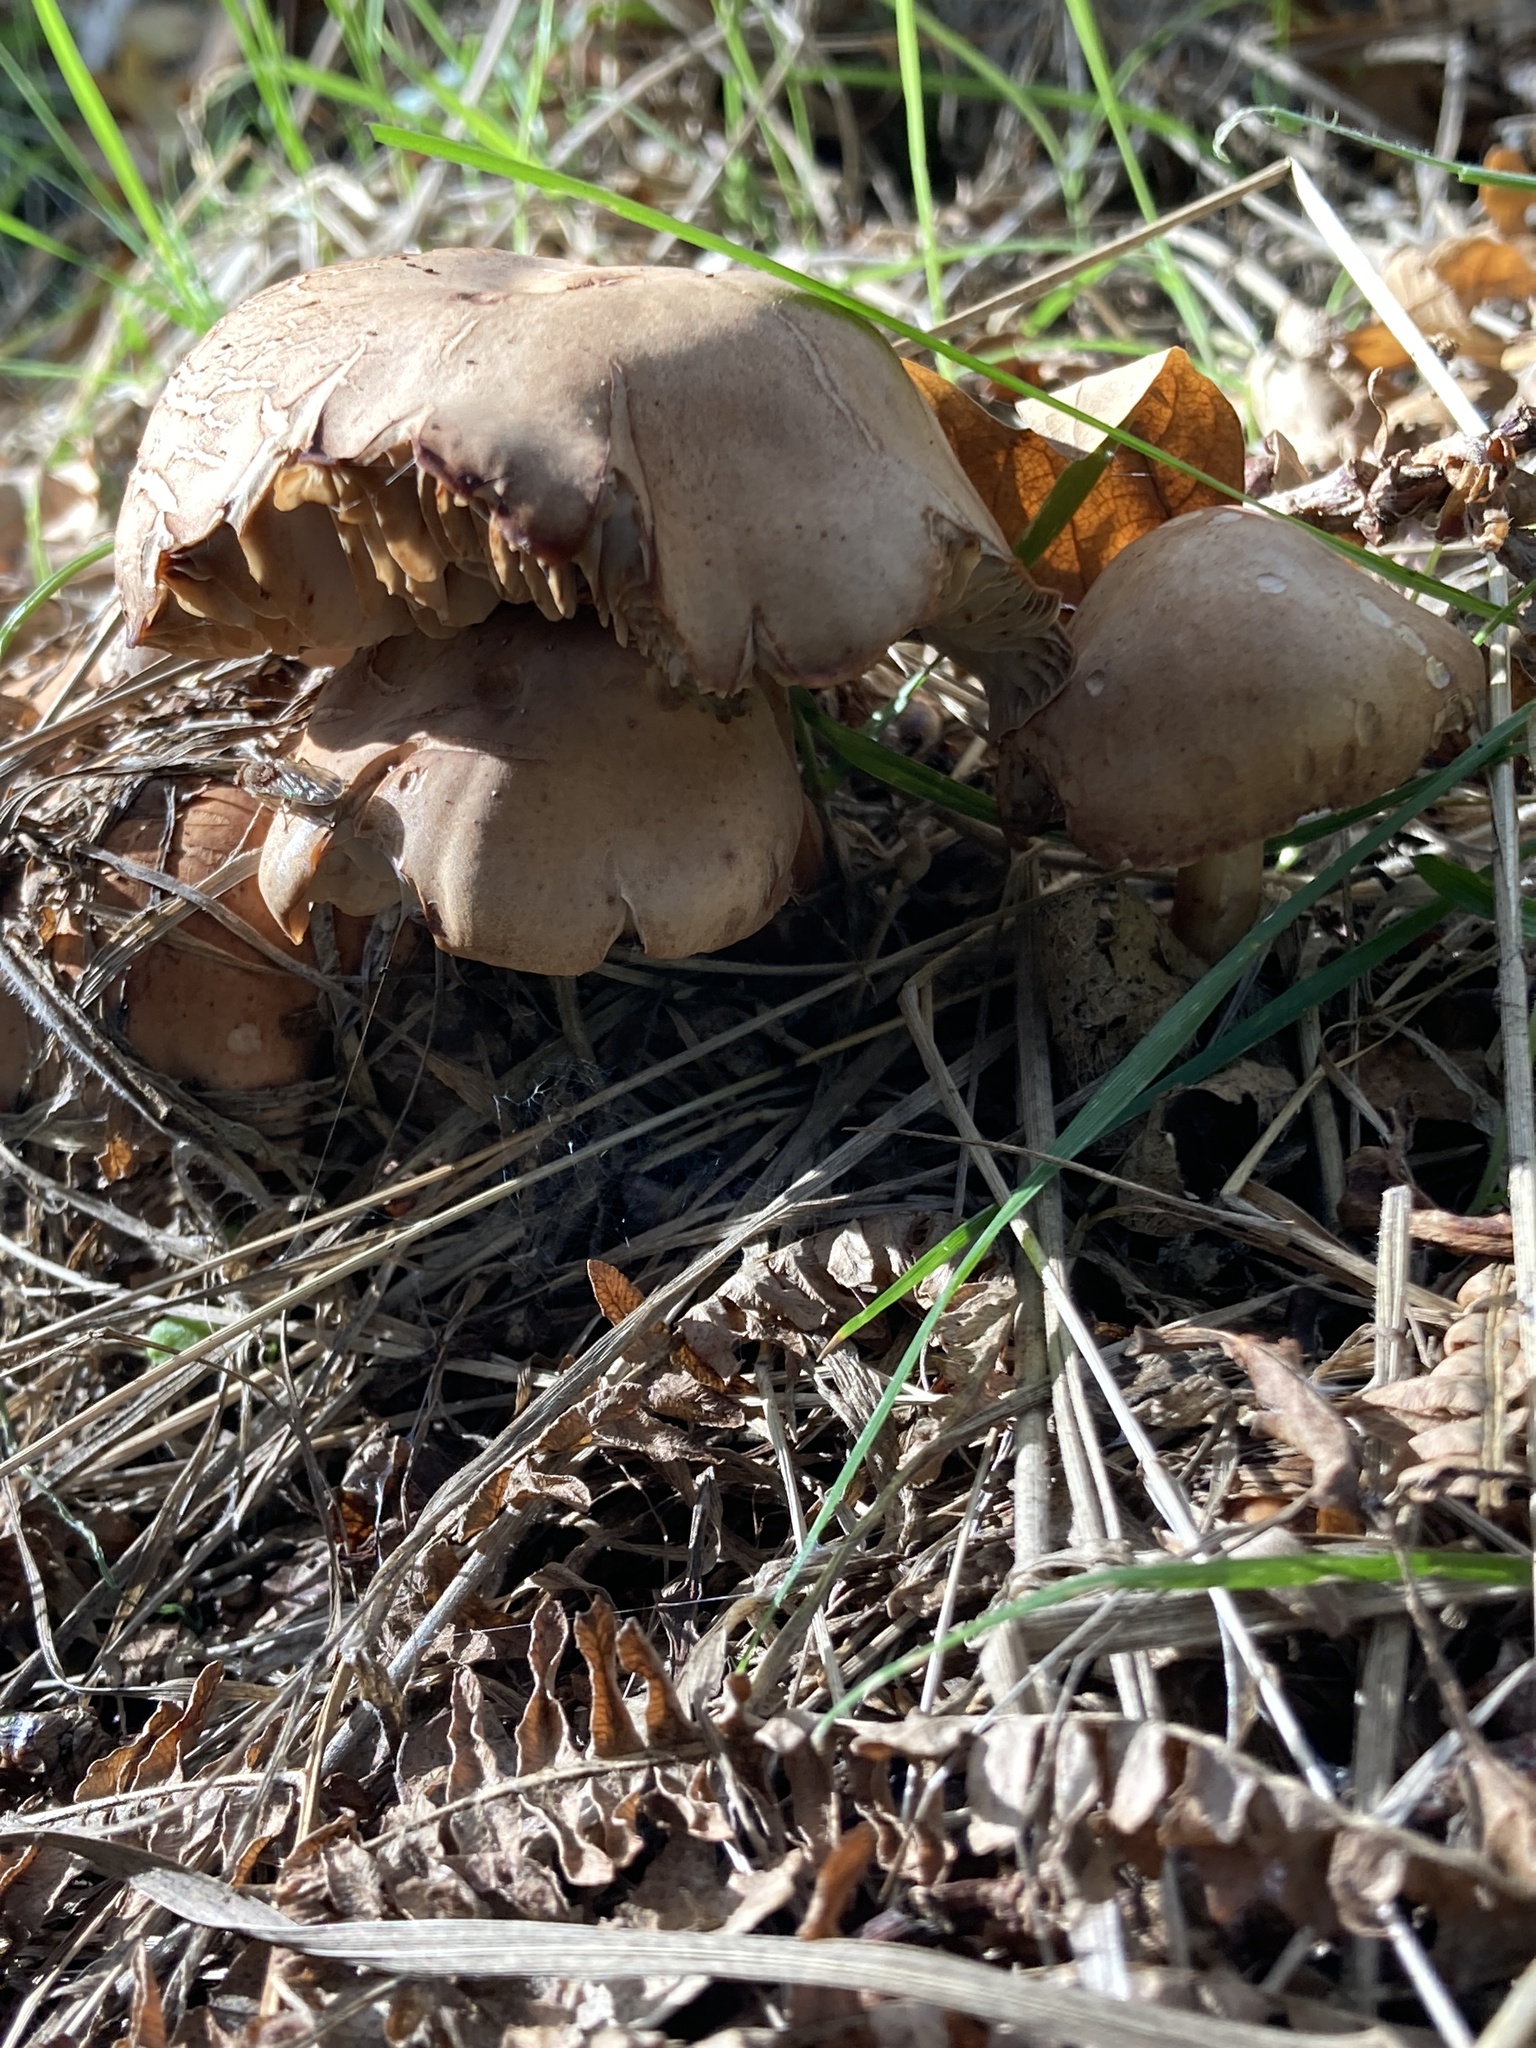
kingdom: Fungi
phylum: Basidiomycota
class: Agaricomycetes
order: Agaricales
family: Omphalotaceae
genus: Gymnopus
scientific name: Gymnopus fusipes
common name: Spindle shank
